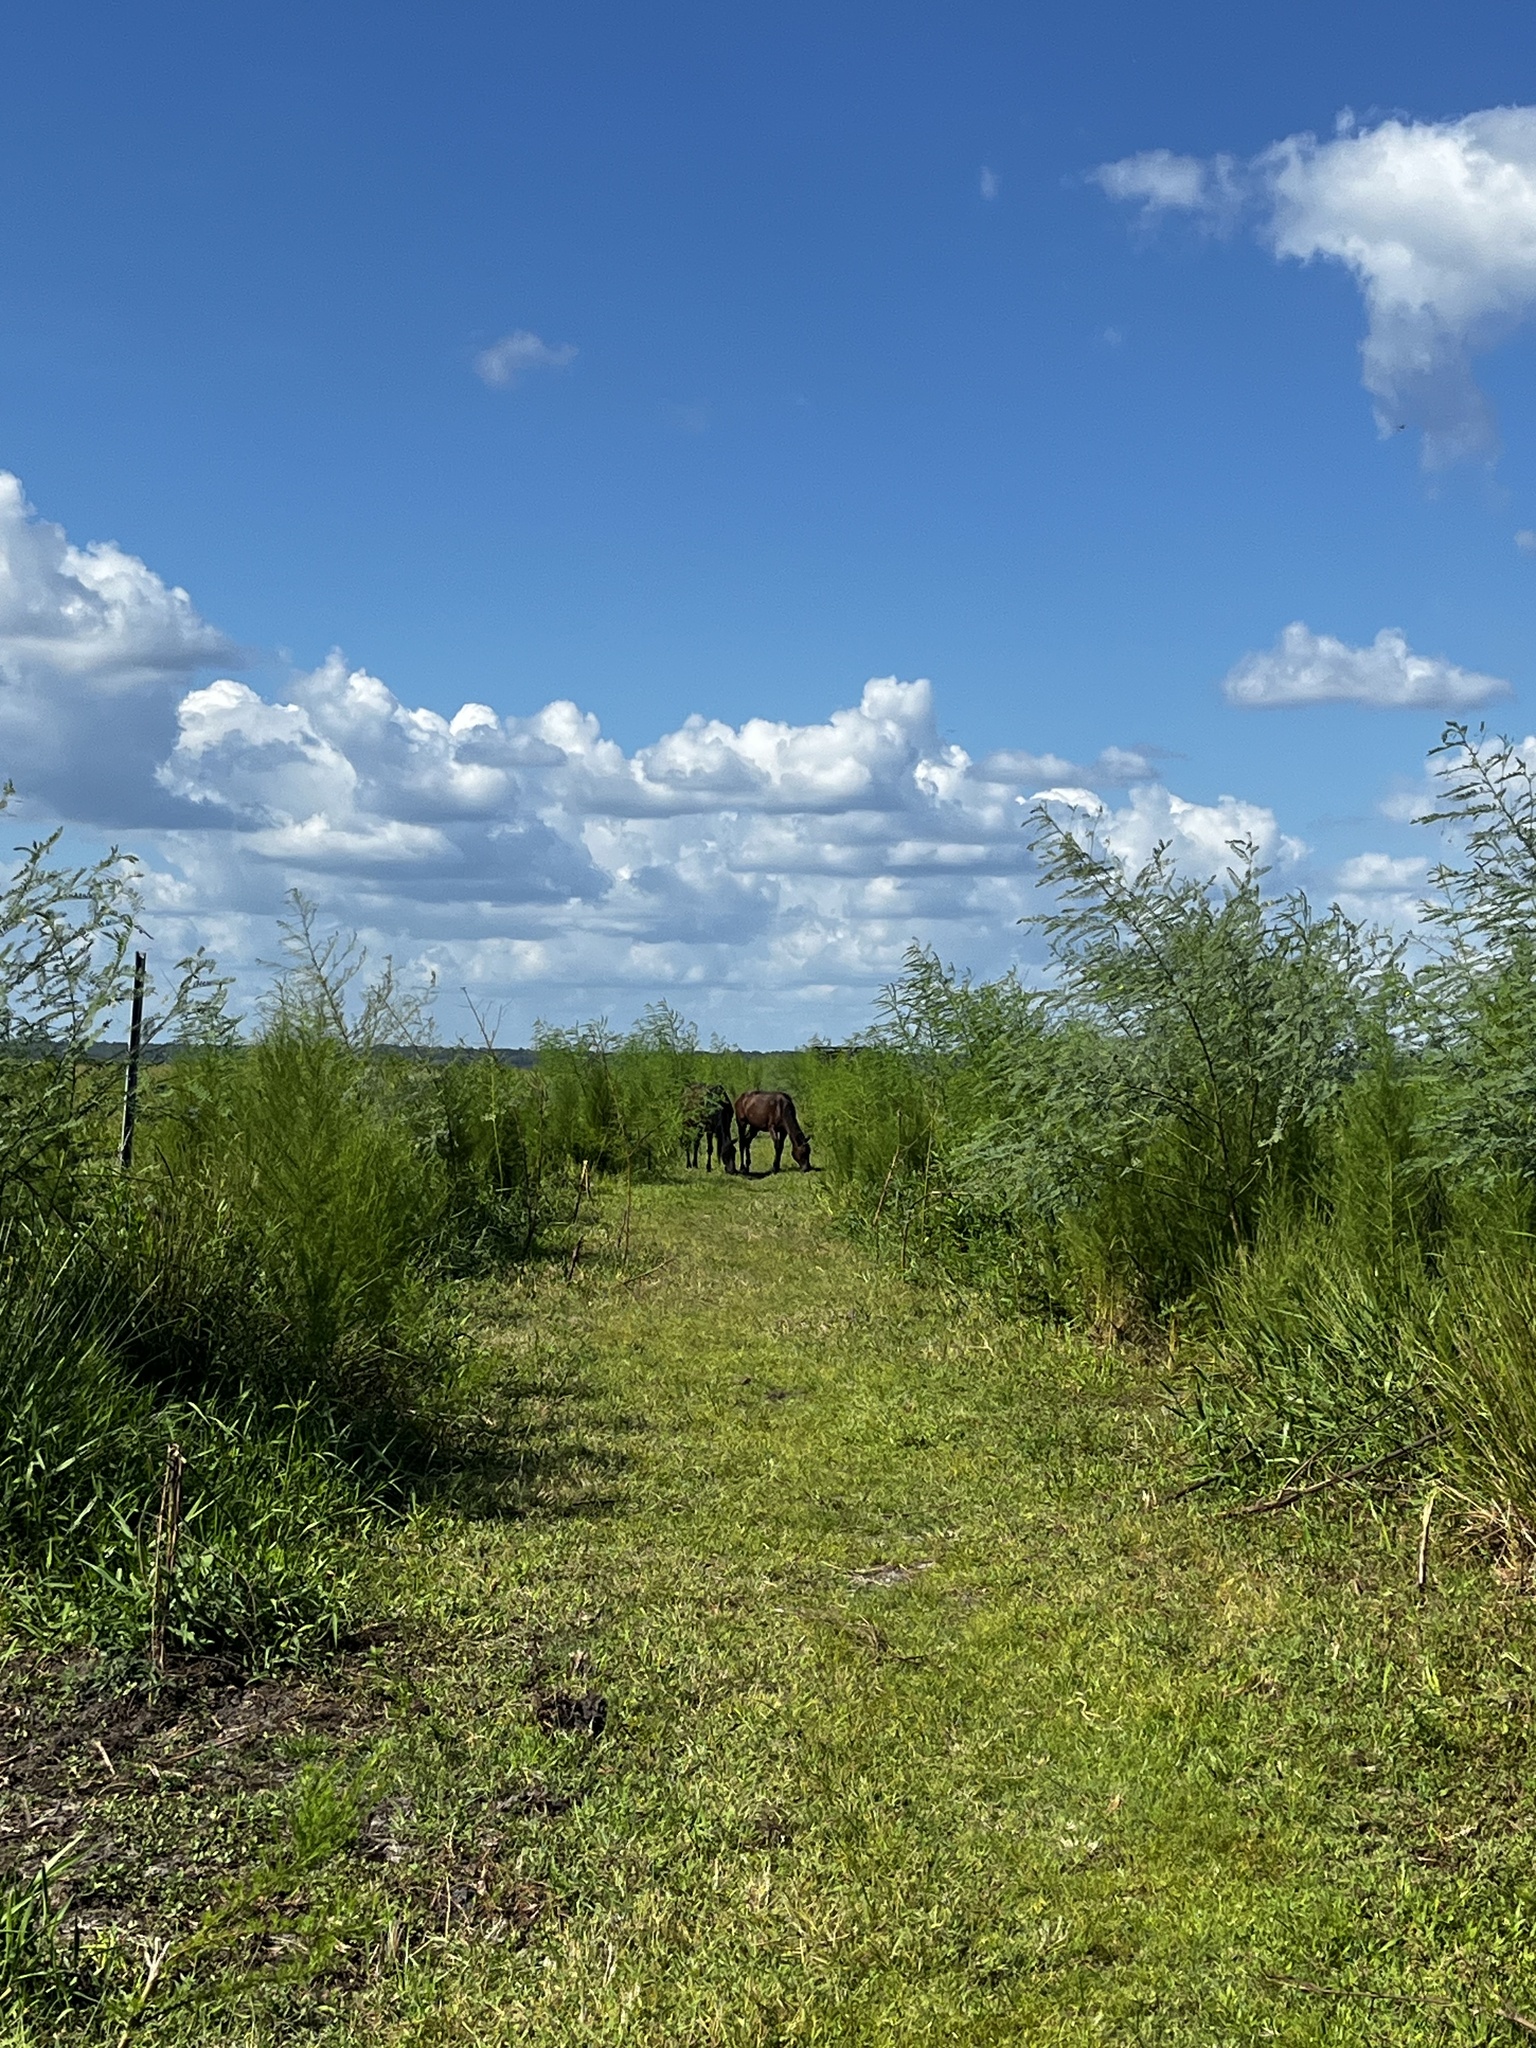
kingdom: Animalia
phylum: Chordata
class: Mammalia
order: Perissodactyla
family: Equidae
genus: Equus
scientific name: Equus caballus
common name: Horse
